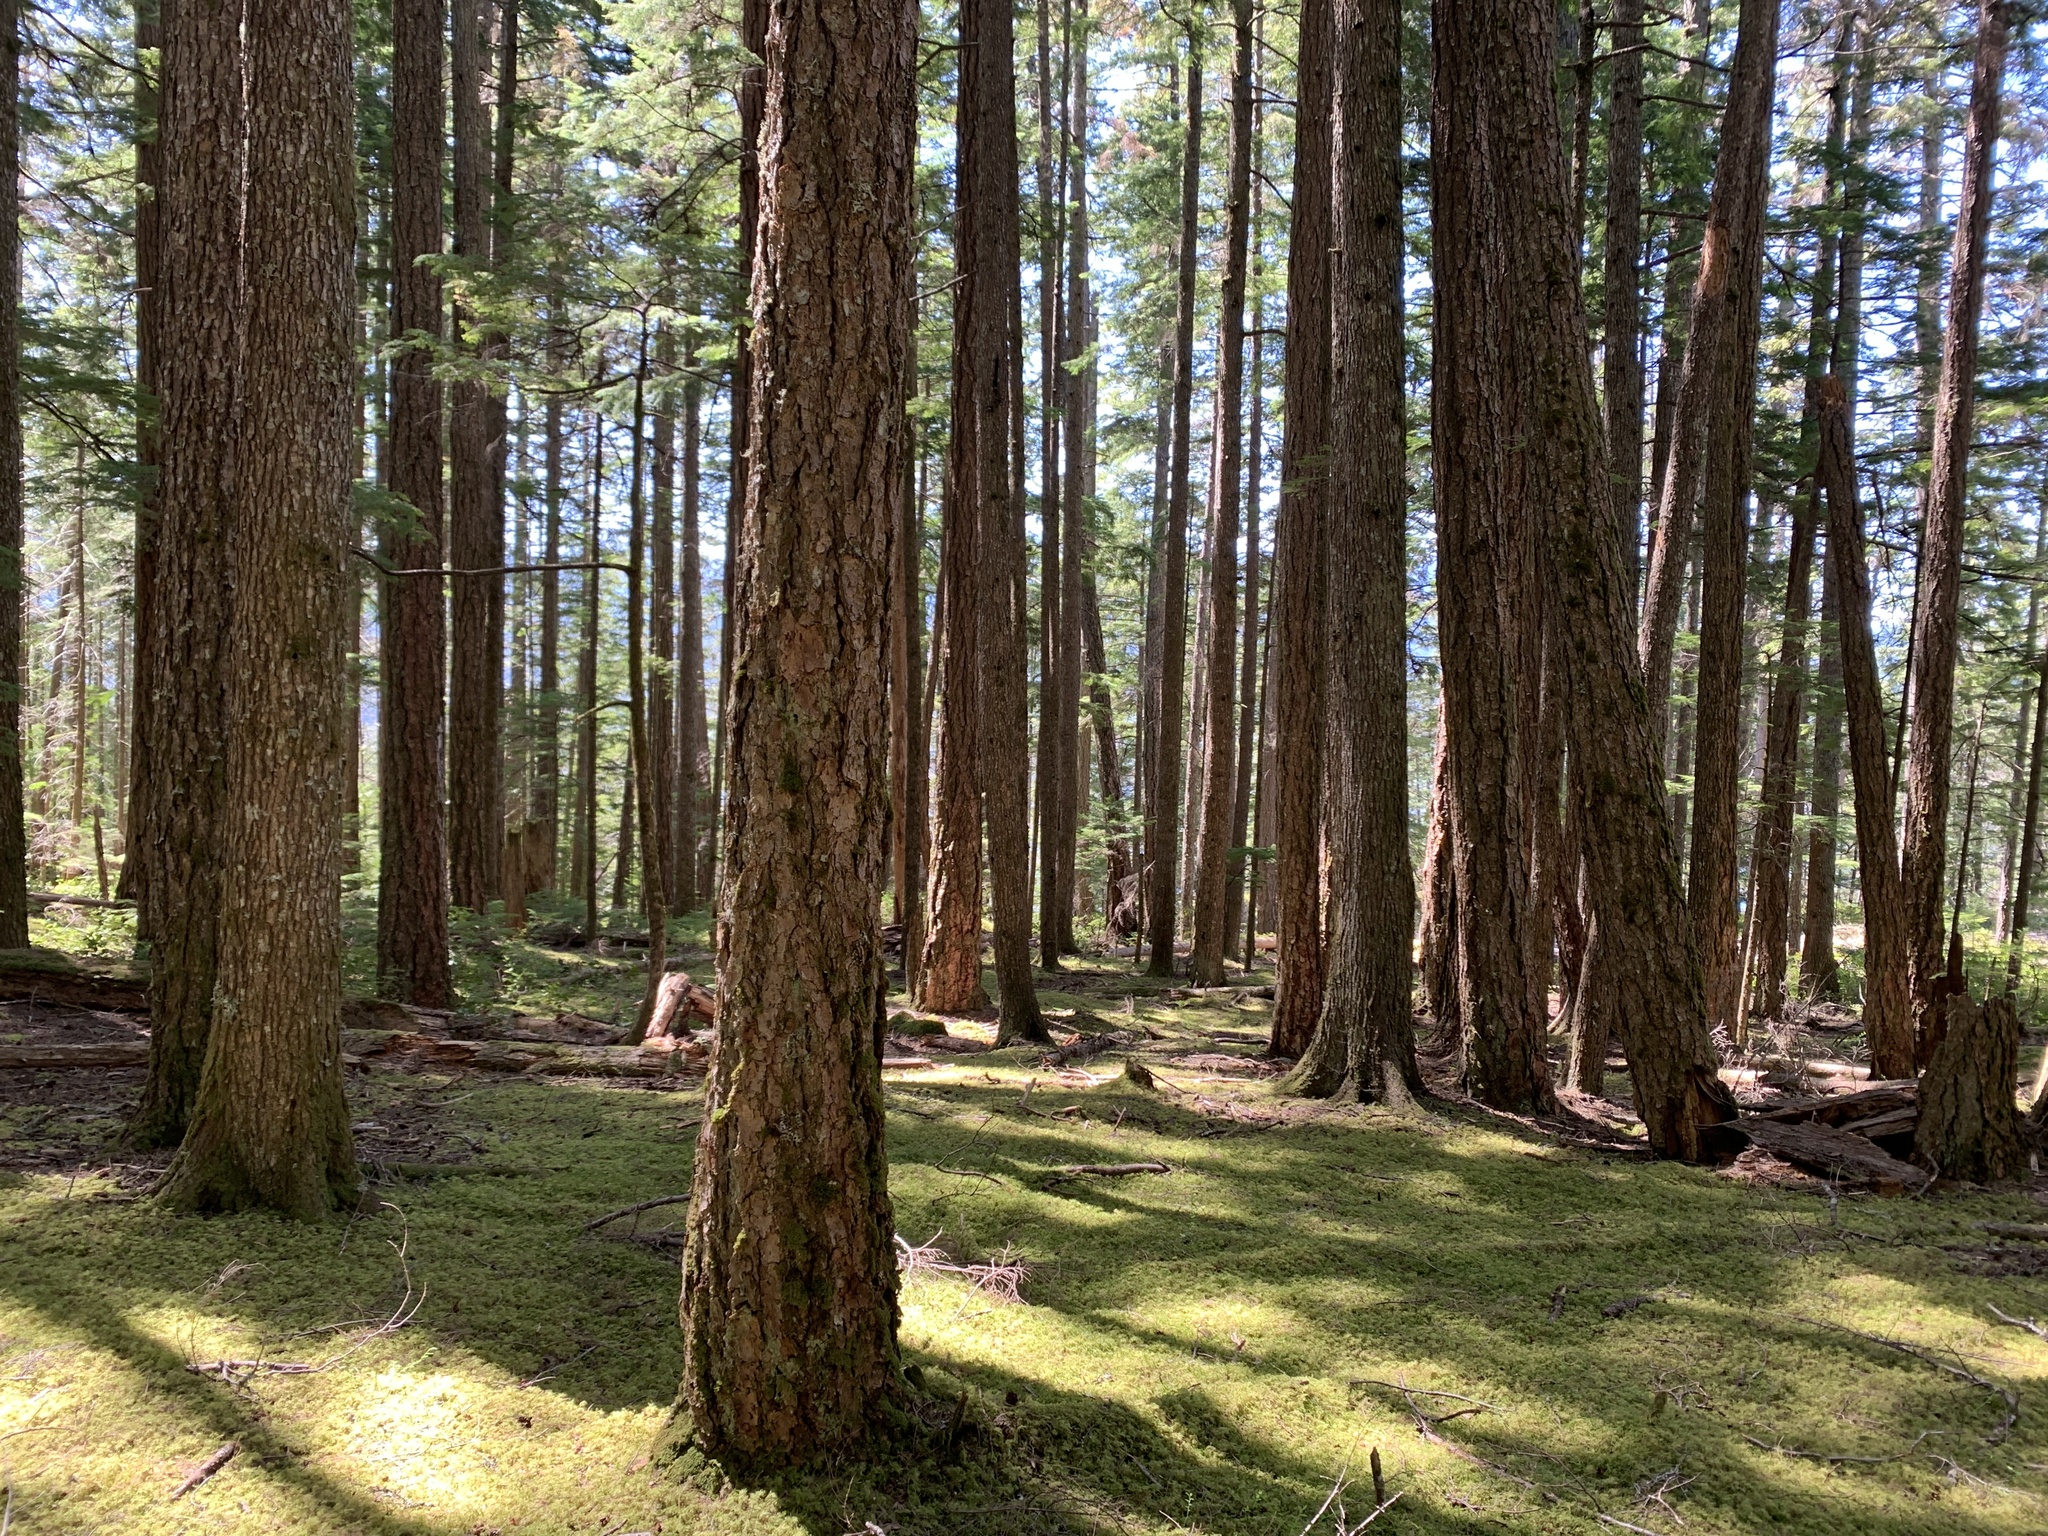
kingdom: Plantae
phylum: Tracheophyta
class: Pinopsida
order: Pinales
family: Pinaceae
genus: Pseudotsuga
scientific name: Pseudotsuga menziesii
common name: Douglas fir
